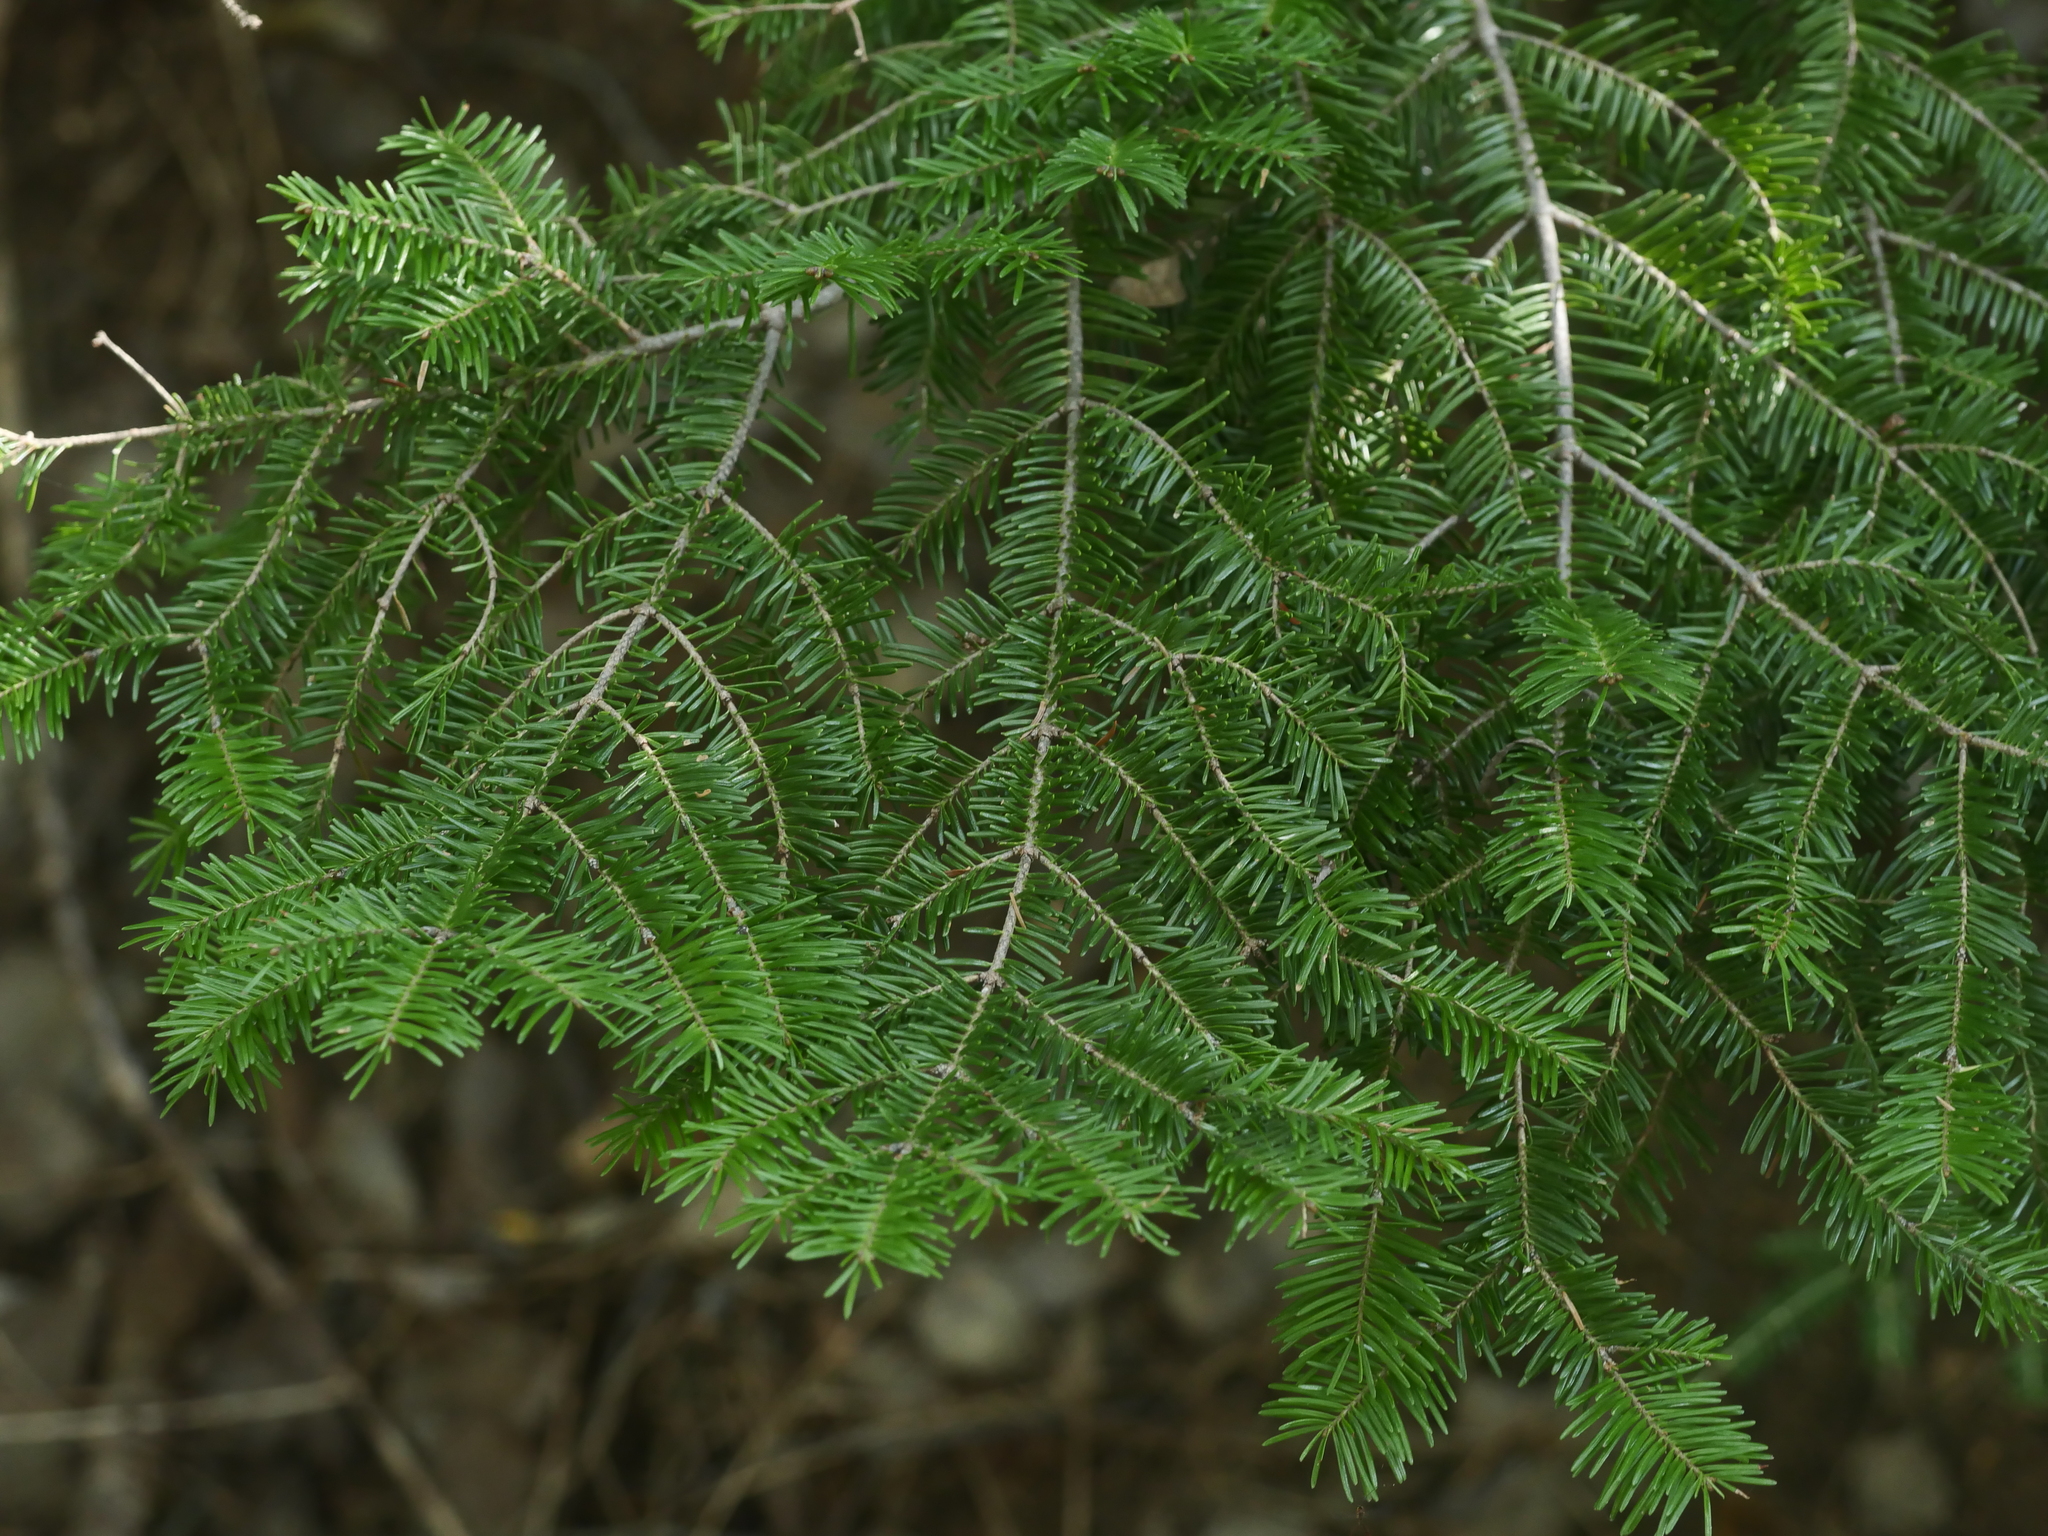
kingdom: Plantae
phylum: Tracheophyta
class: Pinopsida
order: Pinales
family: Pinaceae
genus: Abies
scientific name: Abies balsamea
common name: Balsam fir
